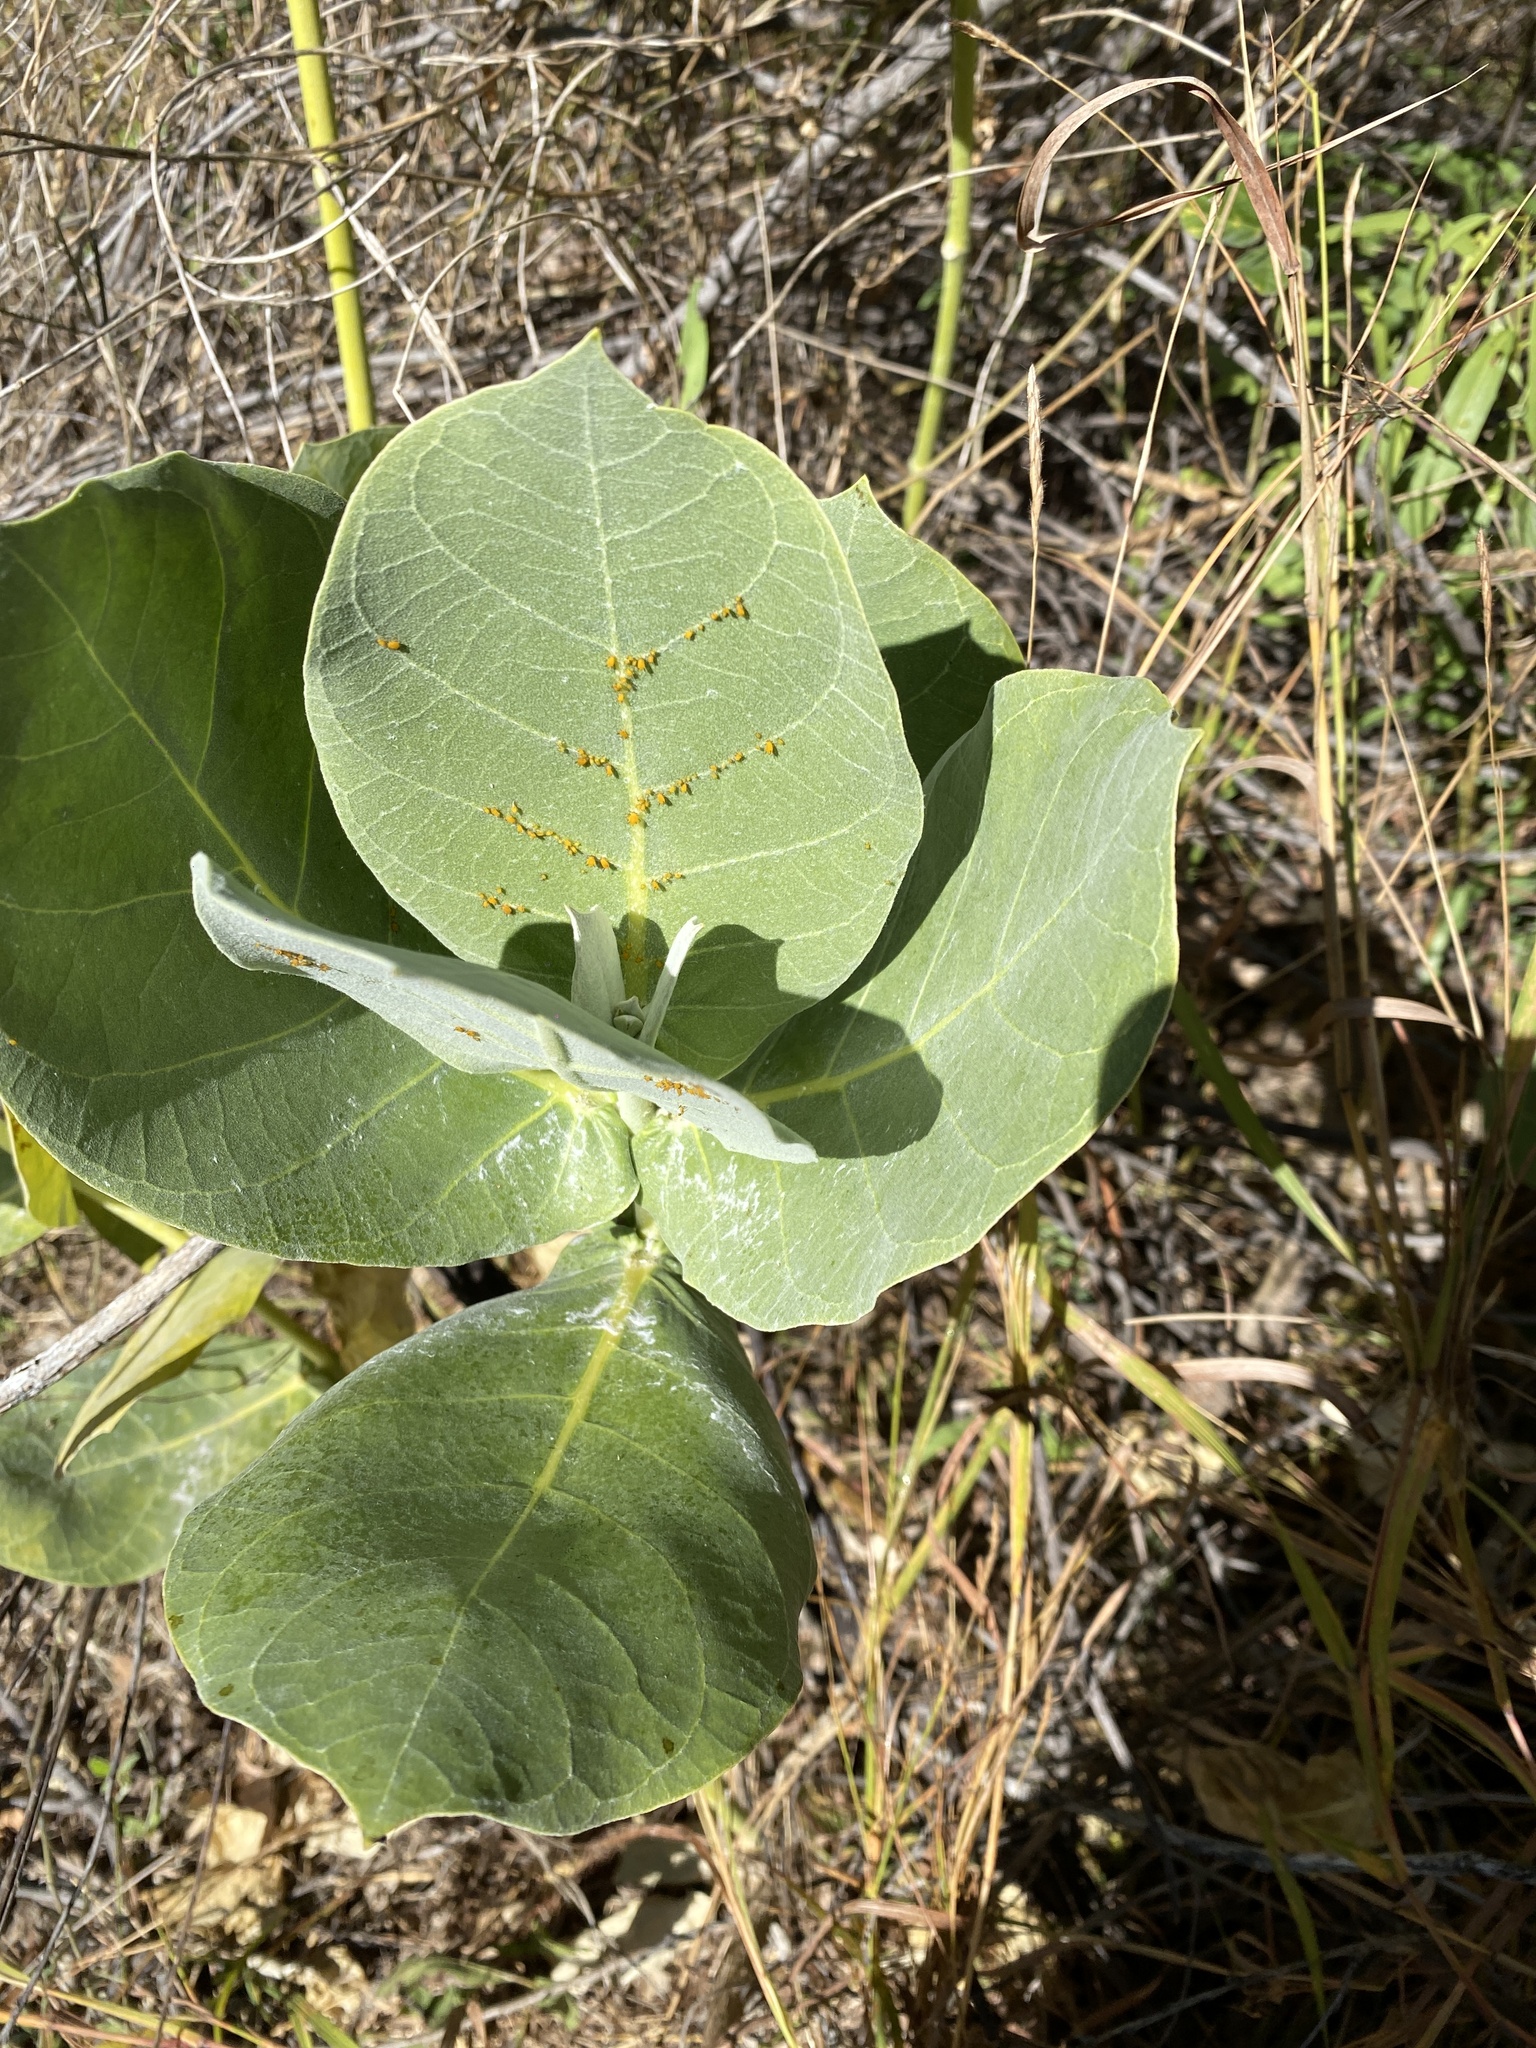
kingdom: Plantae
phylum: Tracheophyta
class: Magnoliopsida
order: Gentianales
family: Apocynaceae
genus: Calotropis
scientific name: Calotropis procera
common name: Roostertree
